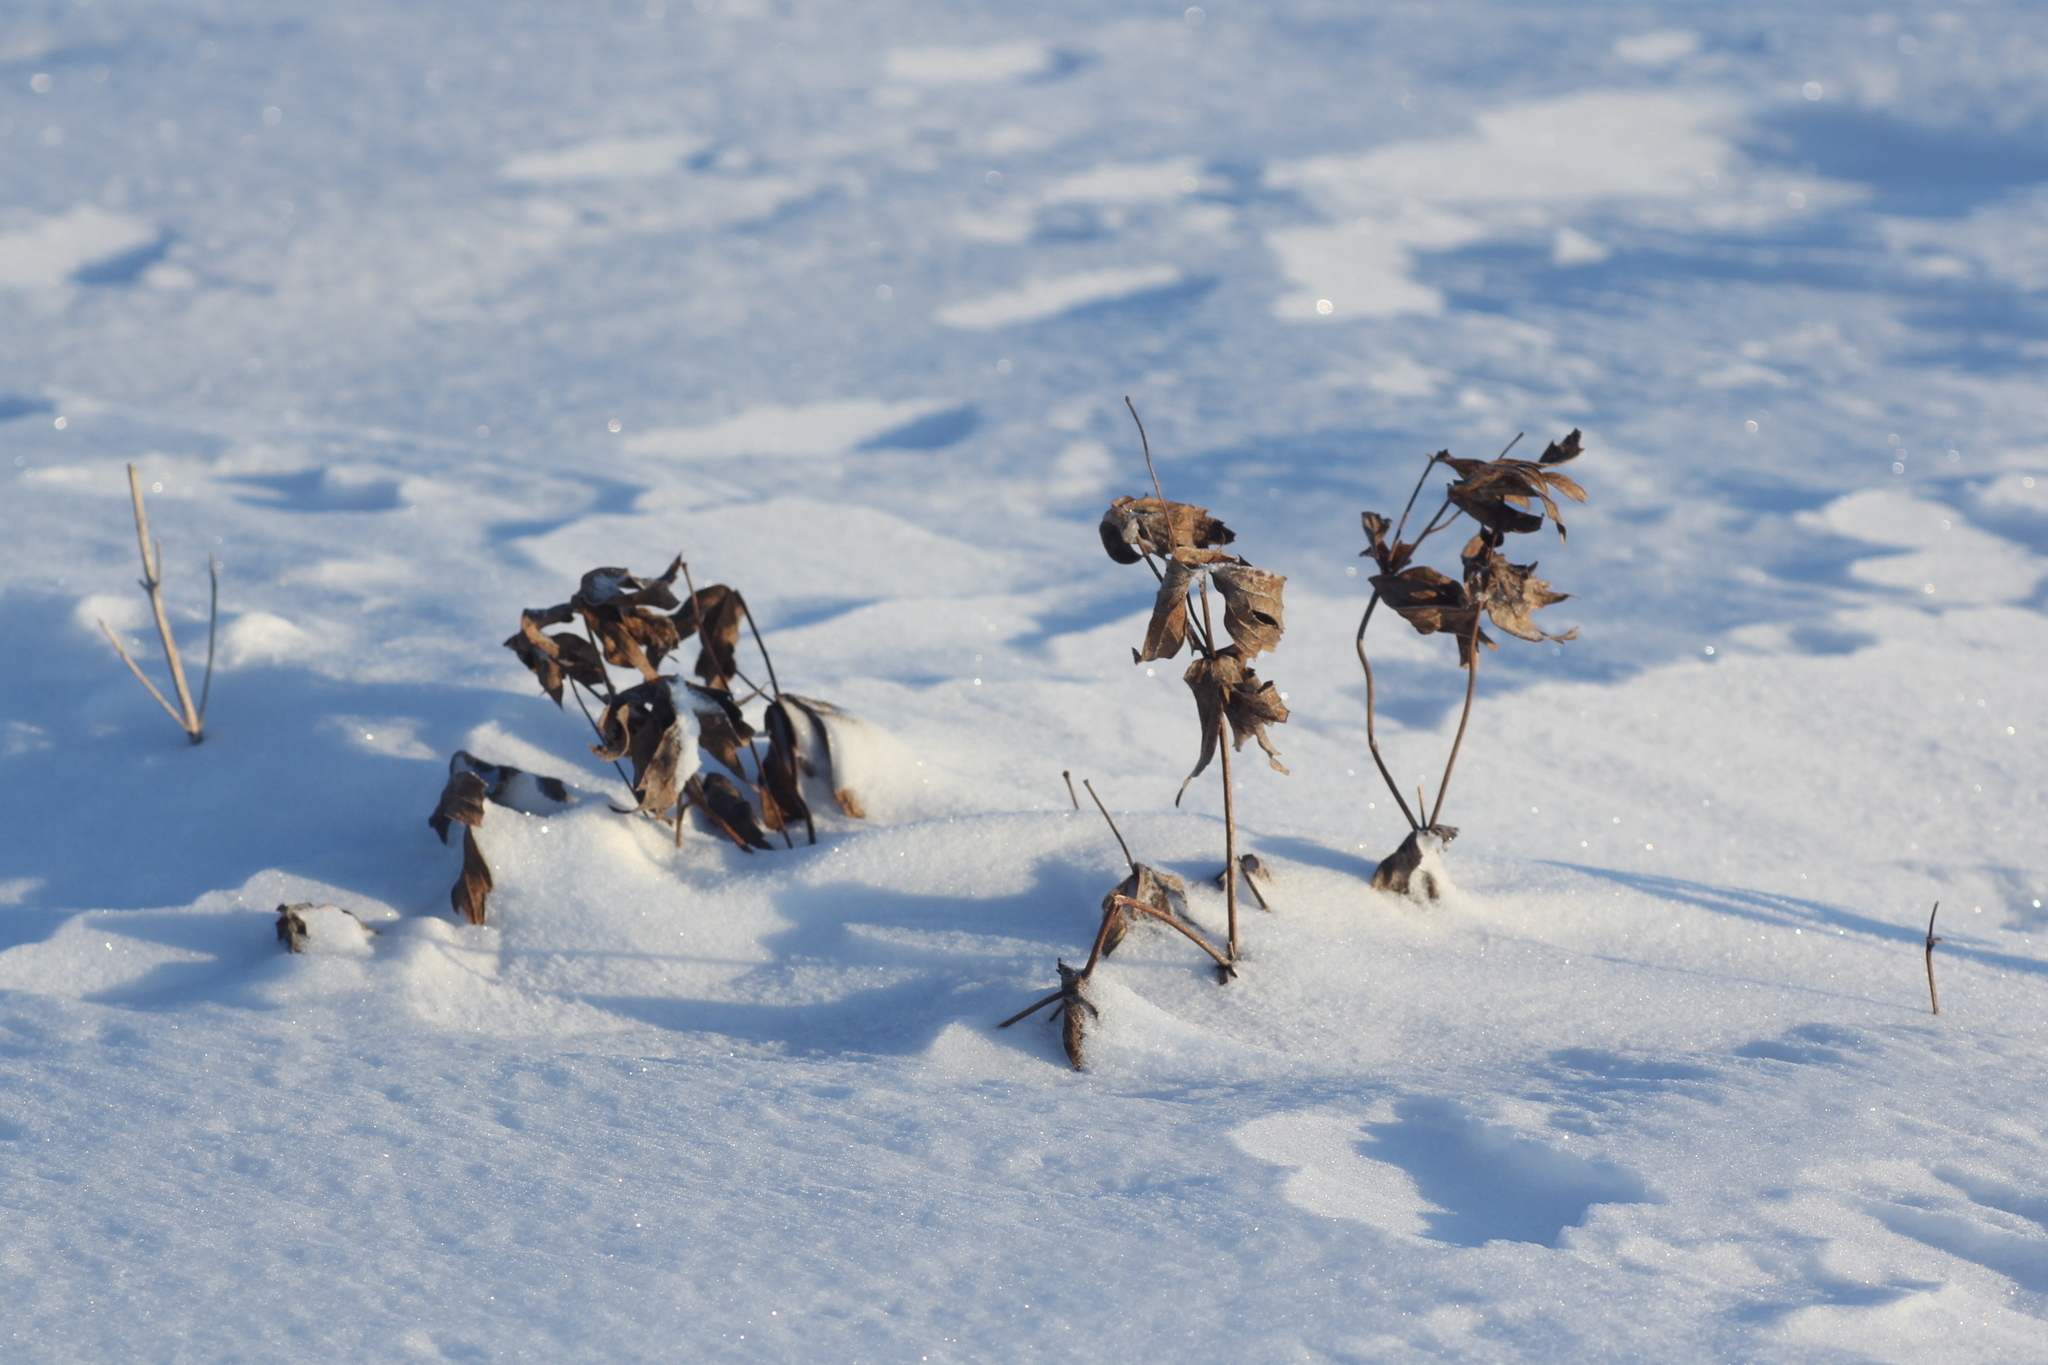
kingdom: Plantae
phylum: Tracheophyta
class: Magnoliopsida
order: Ranunculales
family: Ranunculaceae
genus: Anemonastrum
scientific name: Anemonastrum dichotomum
